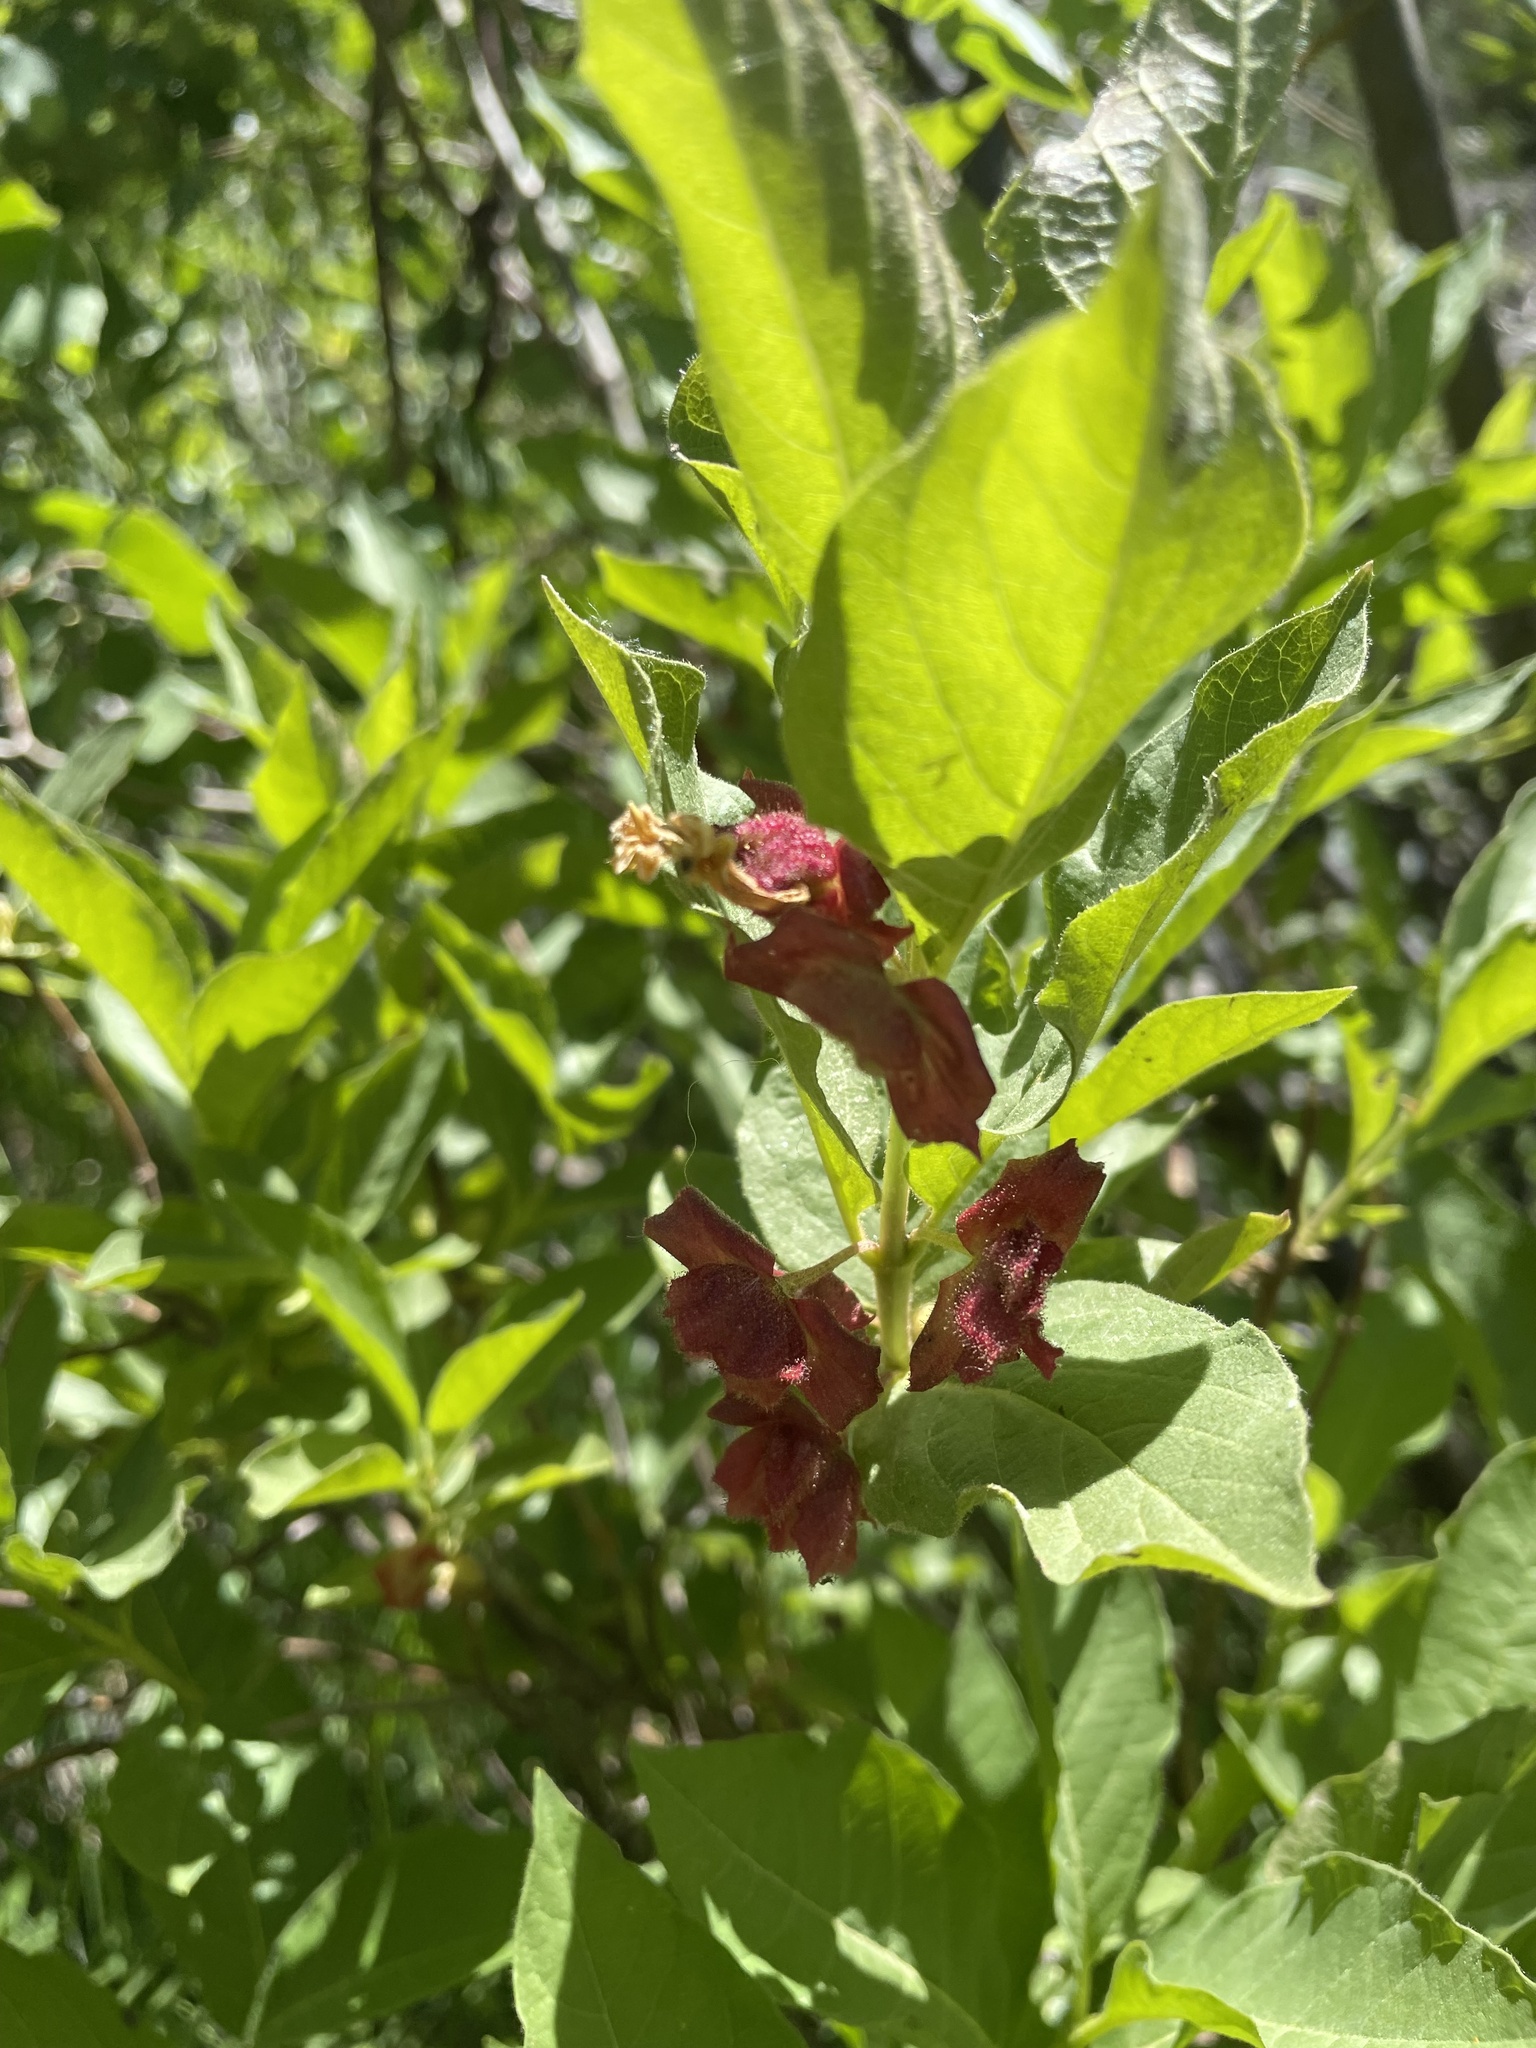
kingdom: Plantae
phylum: Tracheophyta
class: Magnoliopsida
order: Dipsacales
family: Caprifoliaceae
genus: Lonicera
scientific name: Lonicera involucrata
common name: Californian honeysuckle
